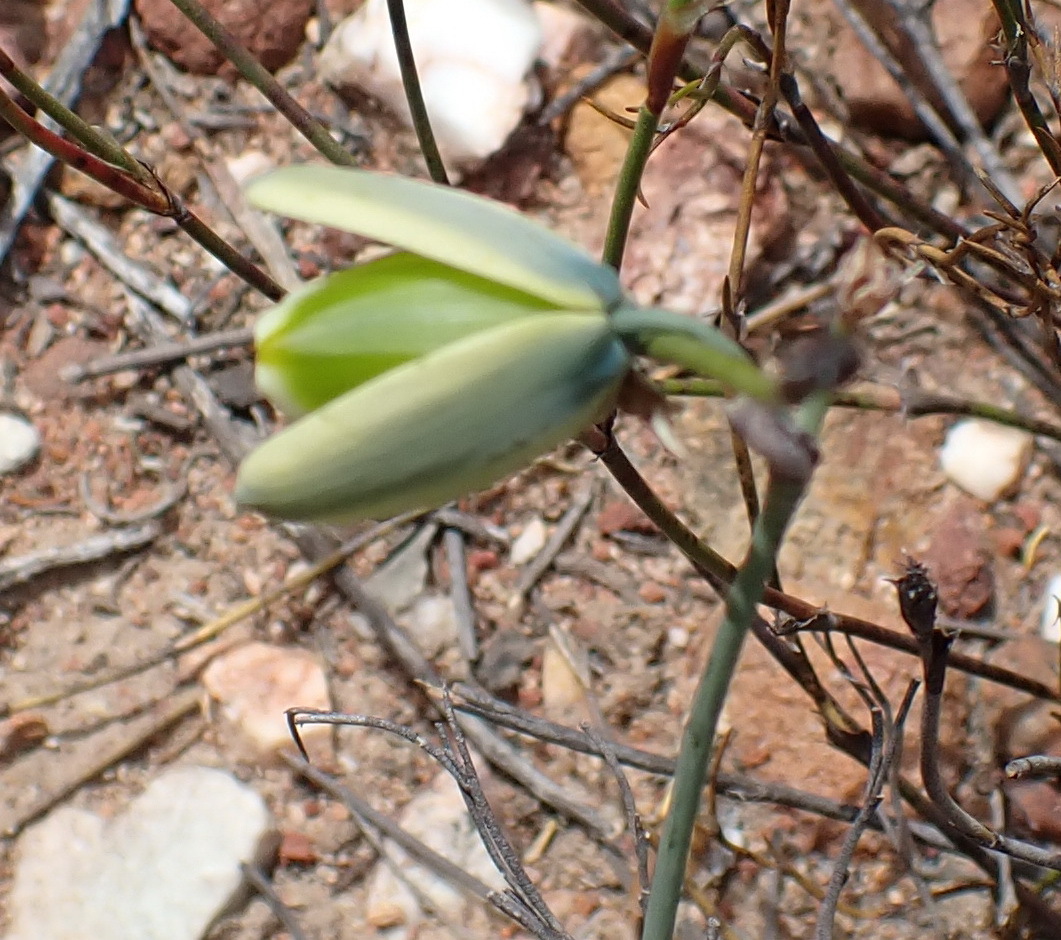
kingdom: Plantae
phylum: Tracheophyta
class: Liliopsida
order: Asparagales
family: Asparagaceae
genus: Albuca
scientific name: Albuca cooperi
